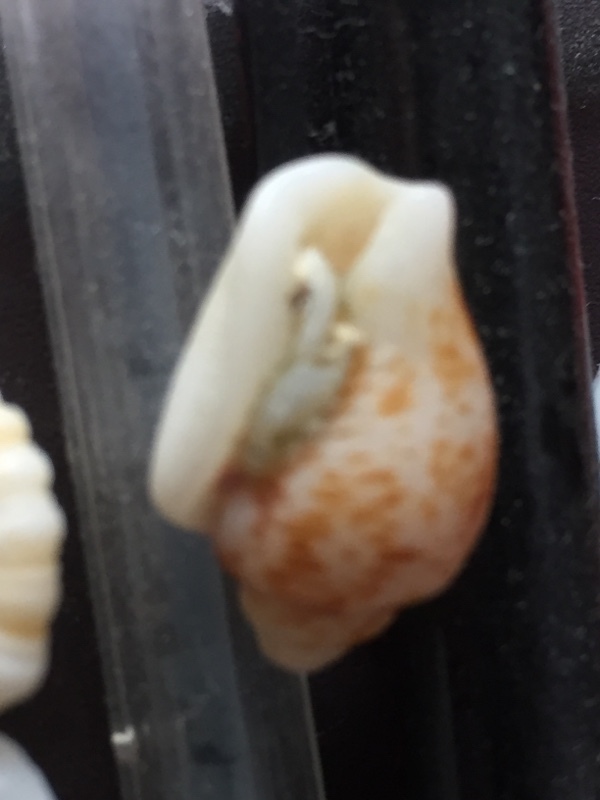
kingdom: Animalia
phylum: Mollusca
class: Gastropoda
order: Neogastropoda
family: Columbellidae
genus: Columbella
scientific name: Columbella mercatoria
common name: West indian dovesnail
